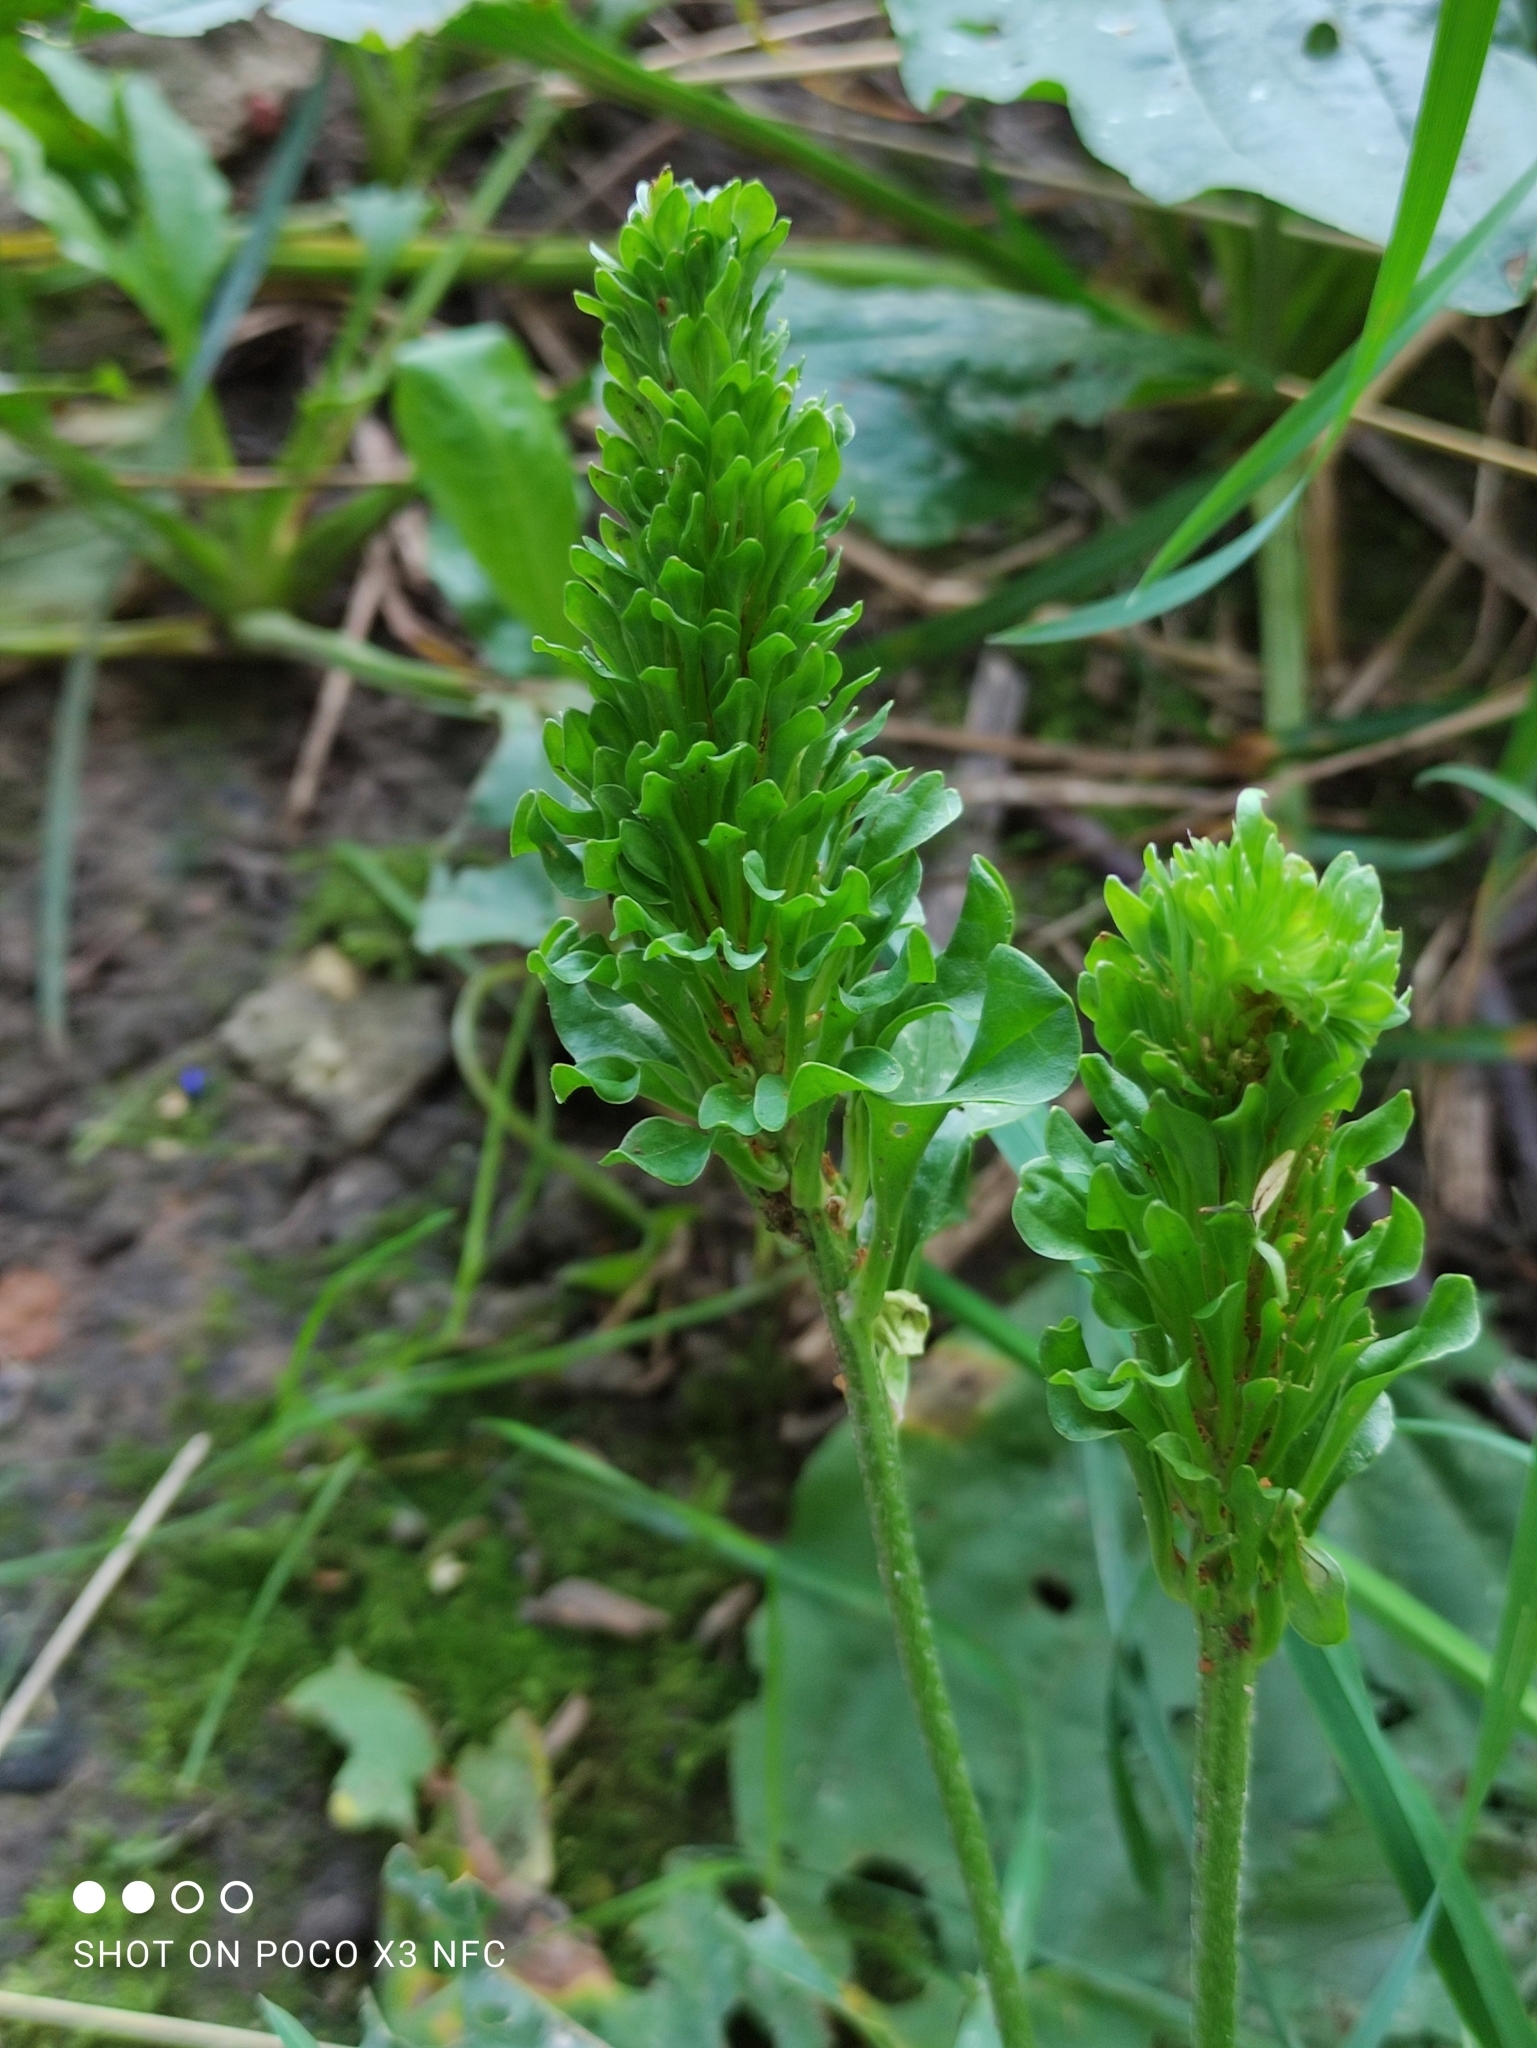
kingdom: Plantae
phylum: Tracheophyta
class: Magnoliopsida
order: Lamiales
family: Plantaginaceae
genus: Plantago
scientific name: Plantago major
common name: Common plantain
